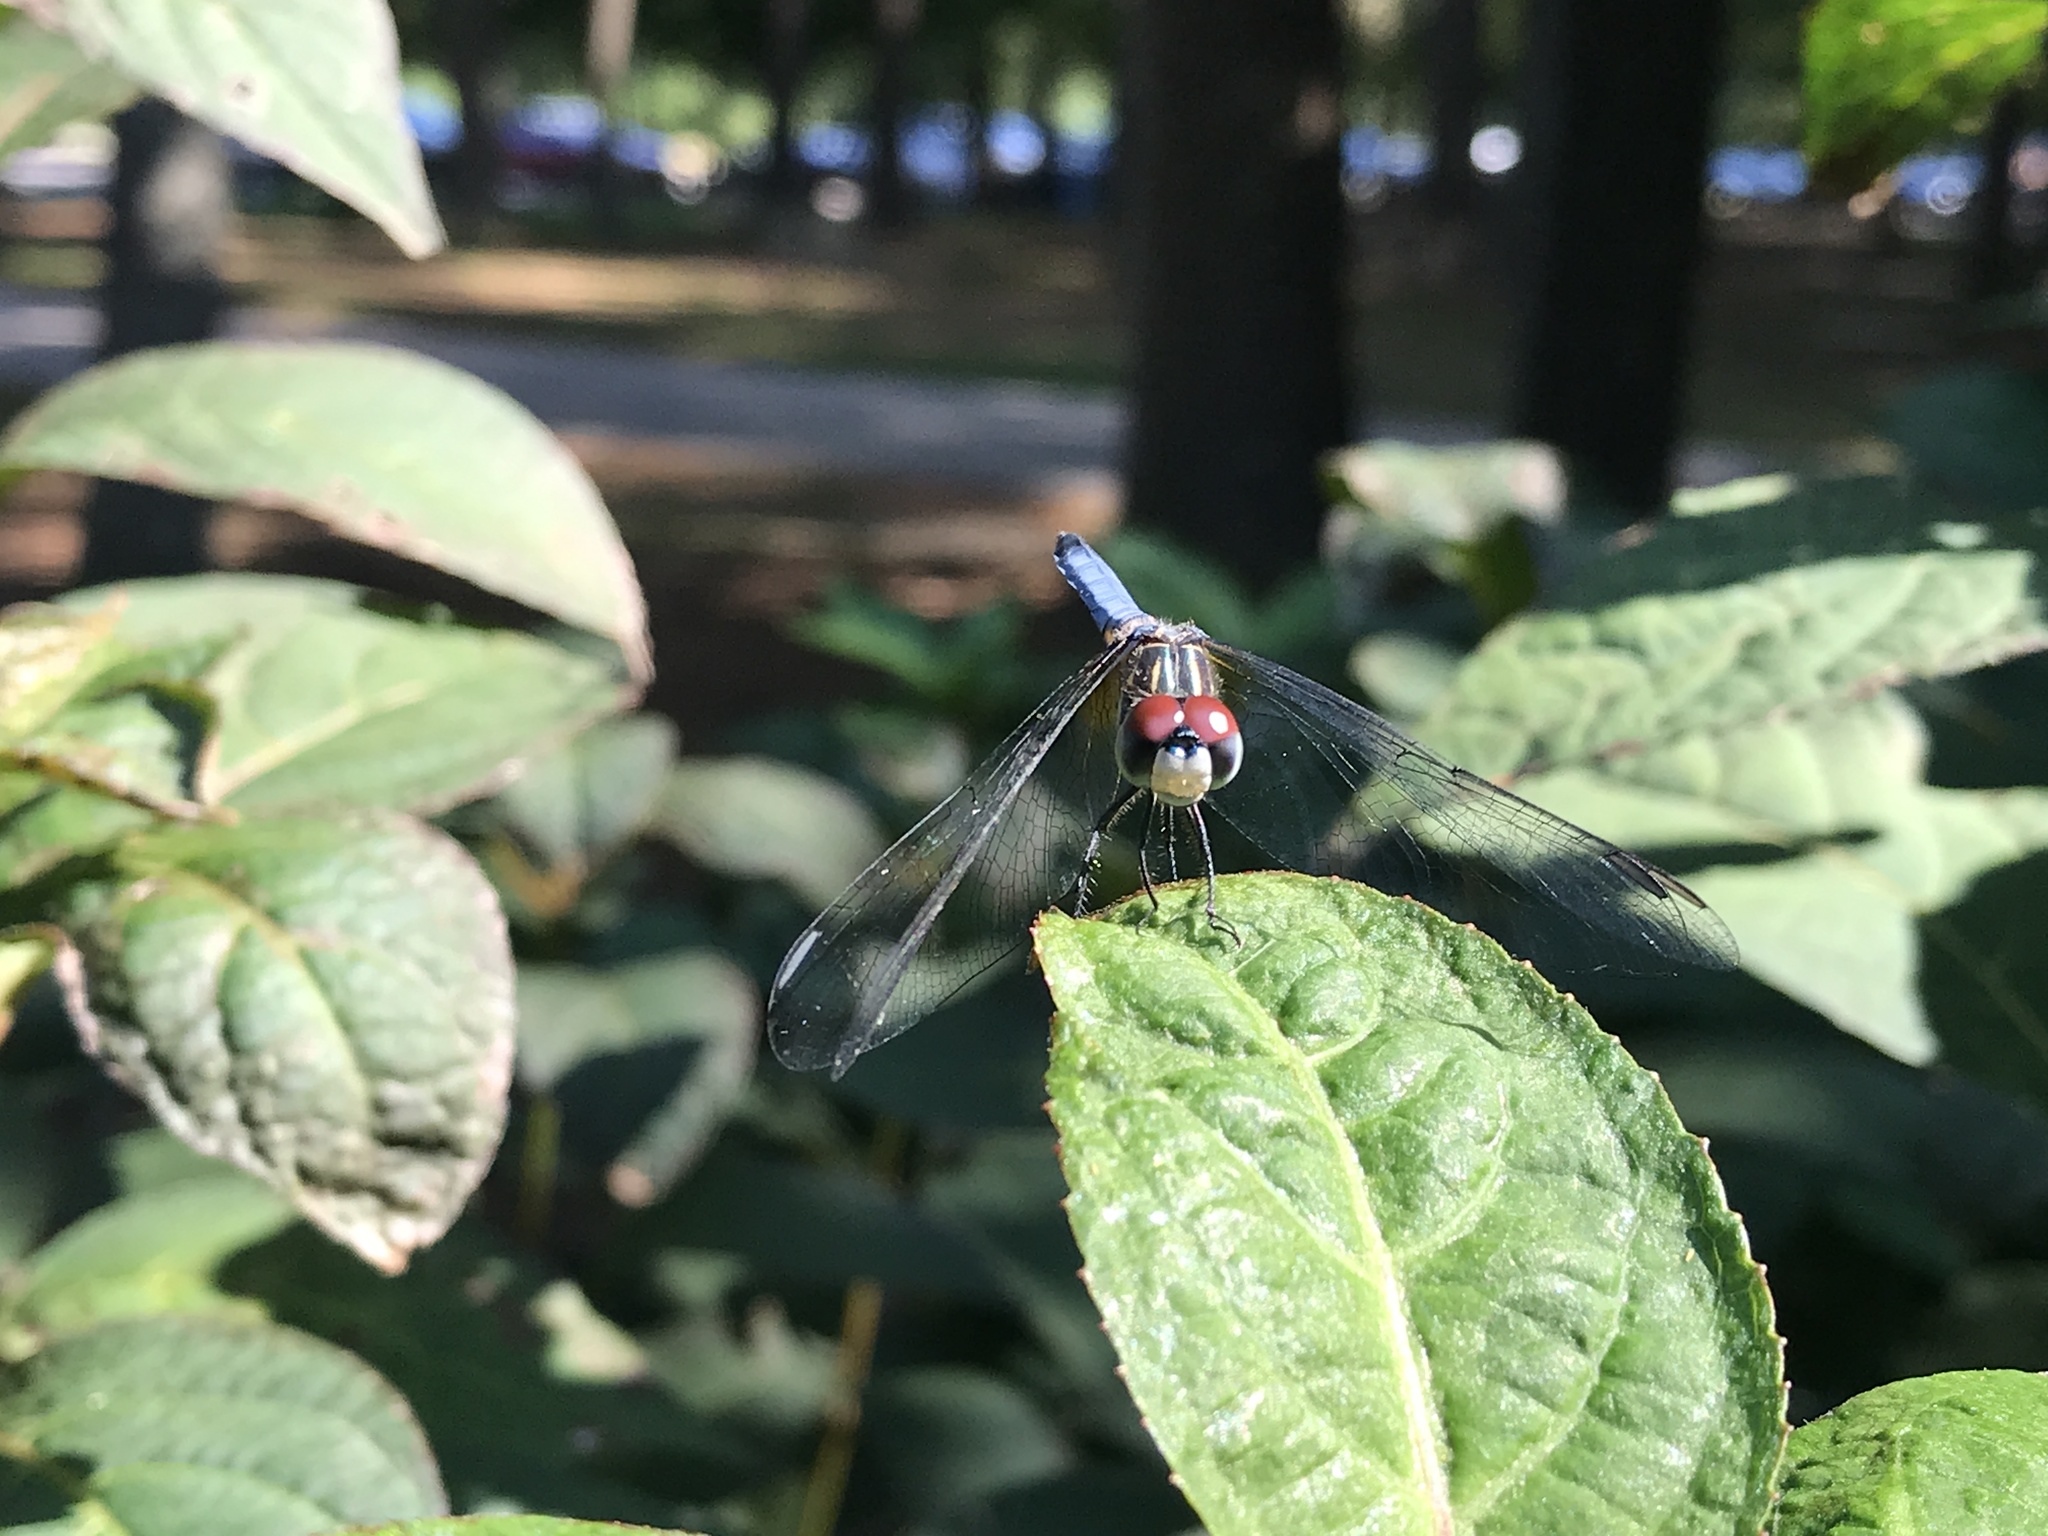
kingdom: Animalia
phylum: Arthropoda
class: Insecta
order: Odonata
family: Libellulidae
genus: Pachydiplax
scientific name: Pachydiplax longipennis
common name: Blue dasher
